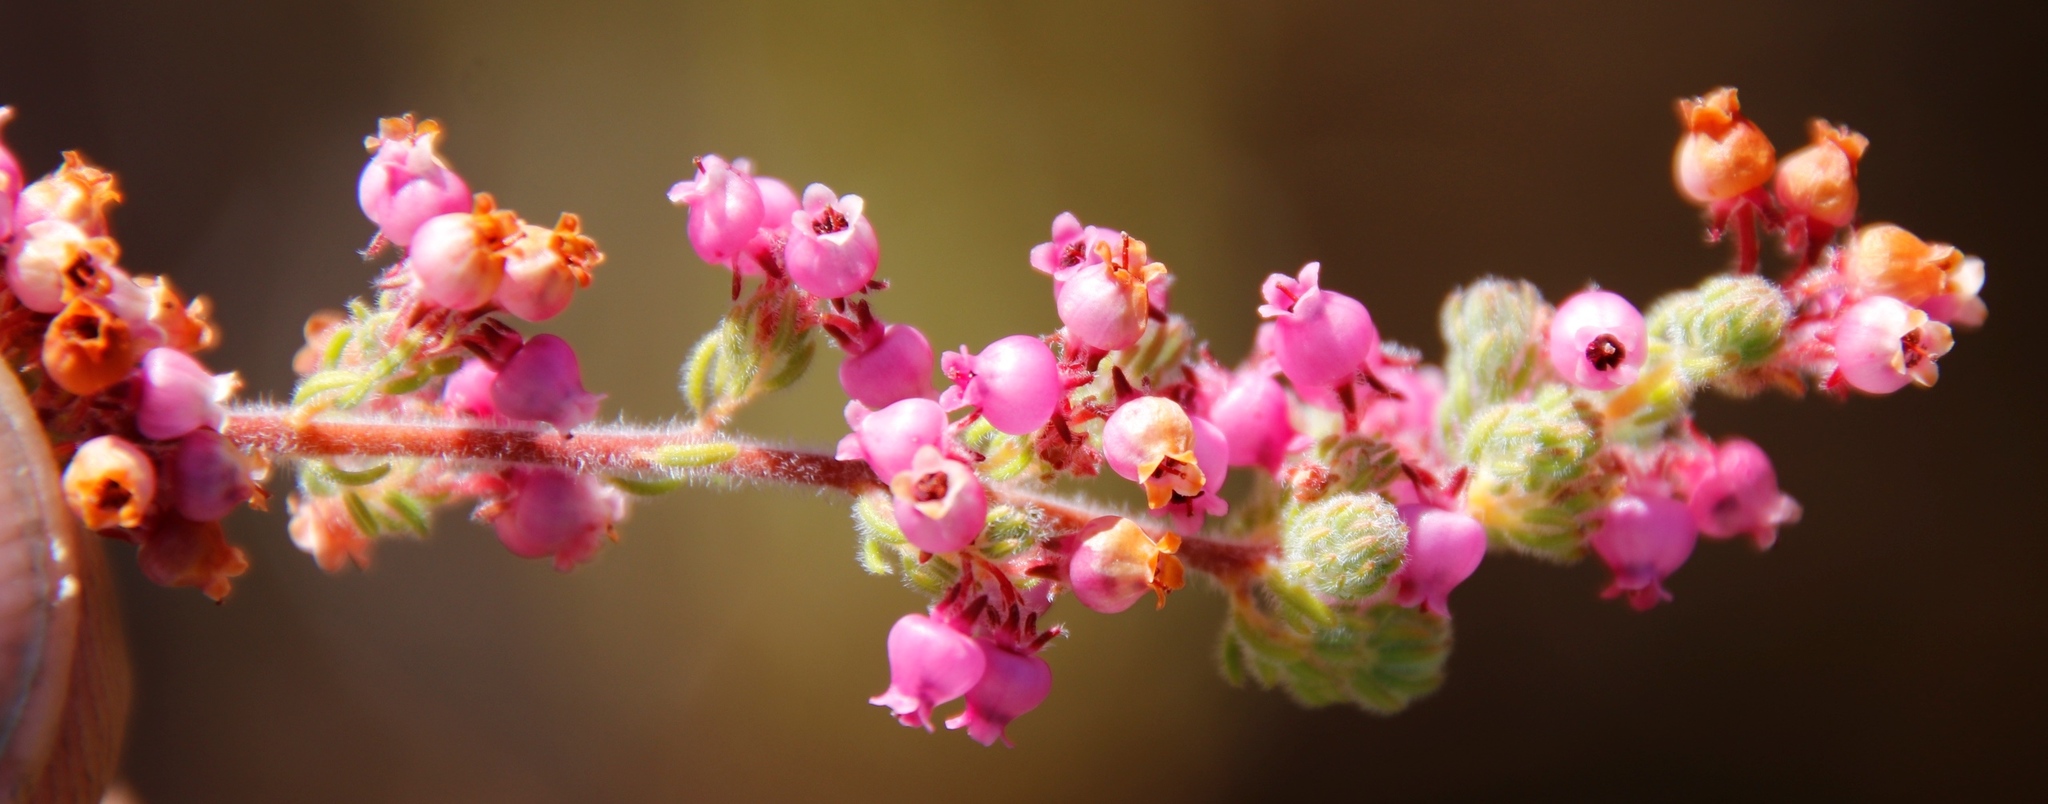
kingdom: Plantae
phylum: Tracheophyta
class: Magnoliopsida
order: Ericales
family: Ericaceae
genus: Erica
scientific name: Erica bergiana
